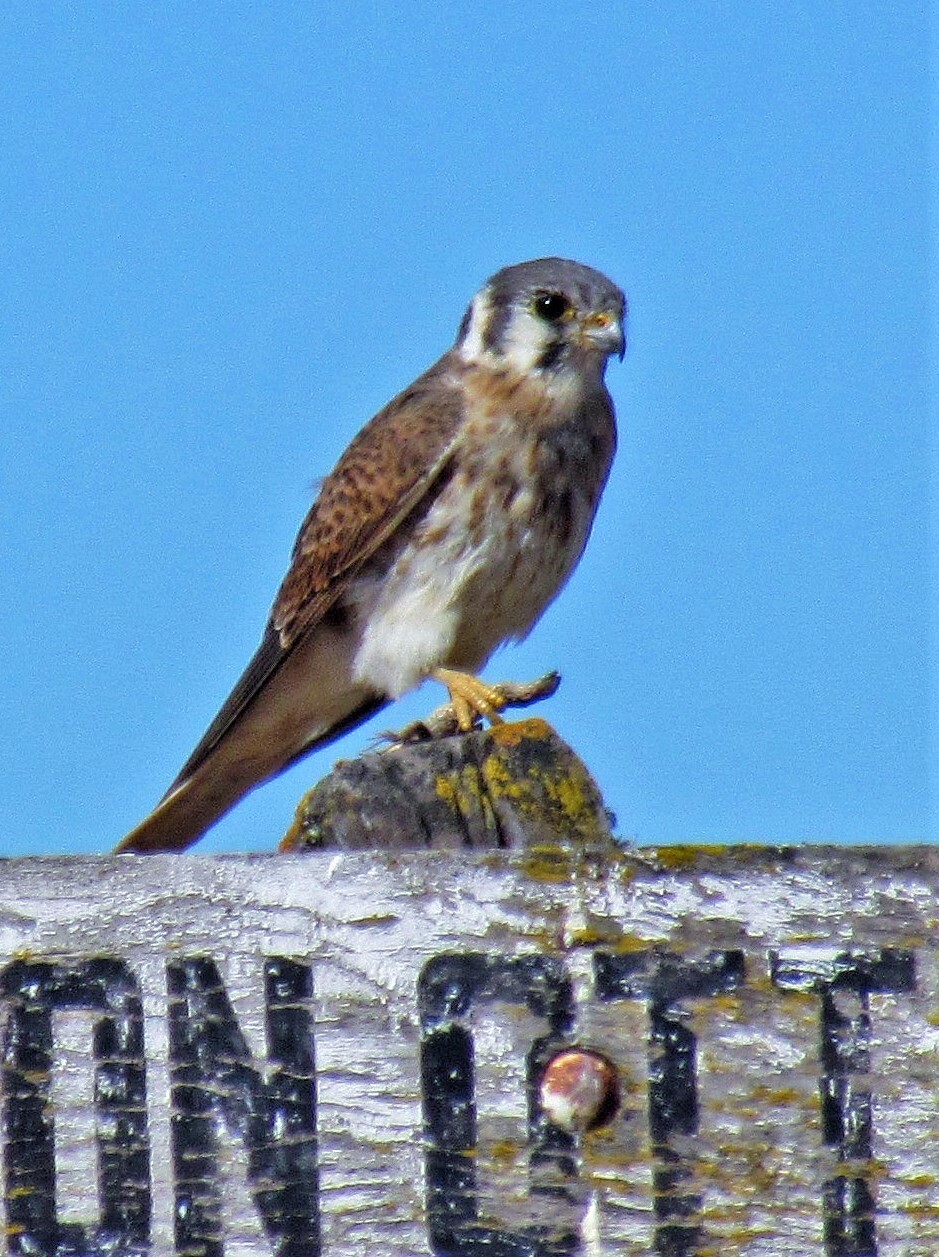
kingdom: Animalia
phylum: Chordata
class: Aves
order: Falconiformes
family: Falconidae
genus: Falco
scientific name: Falco sparverius
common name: American kestrel
